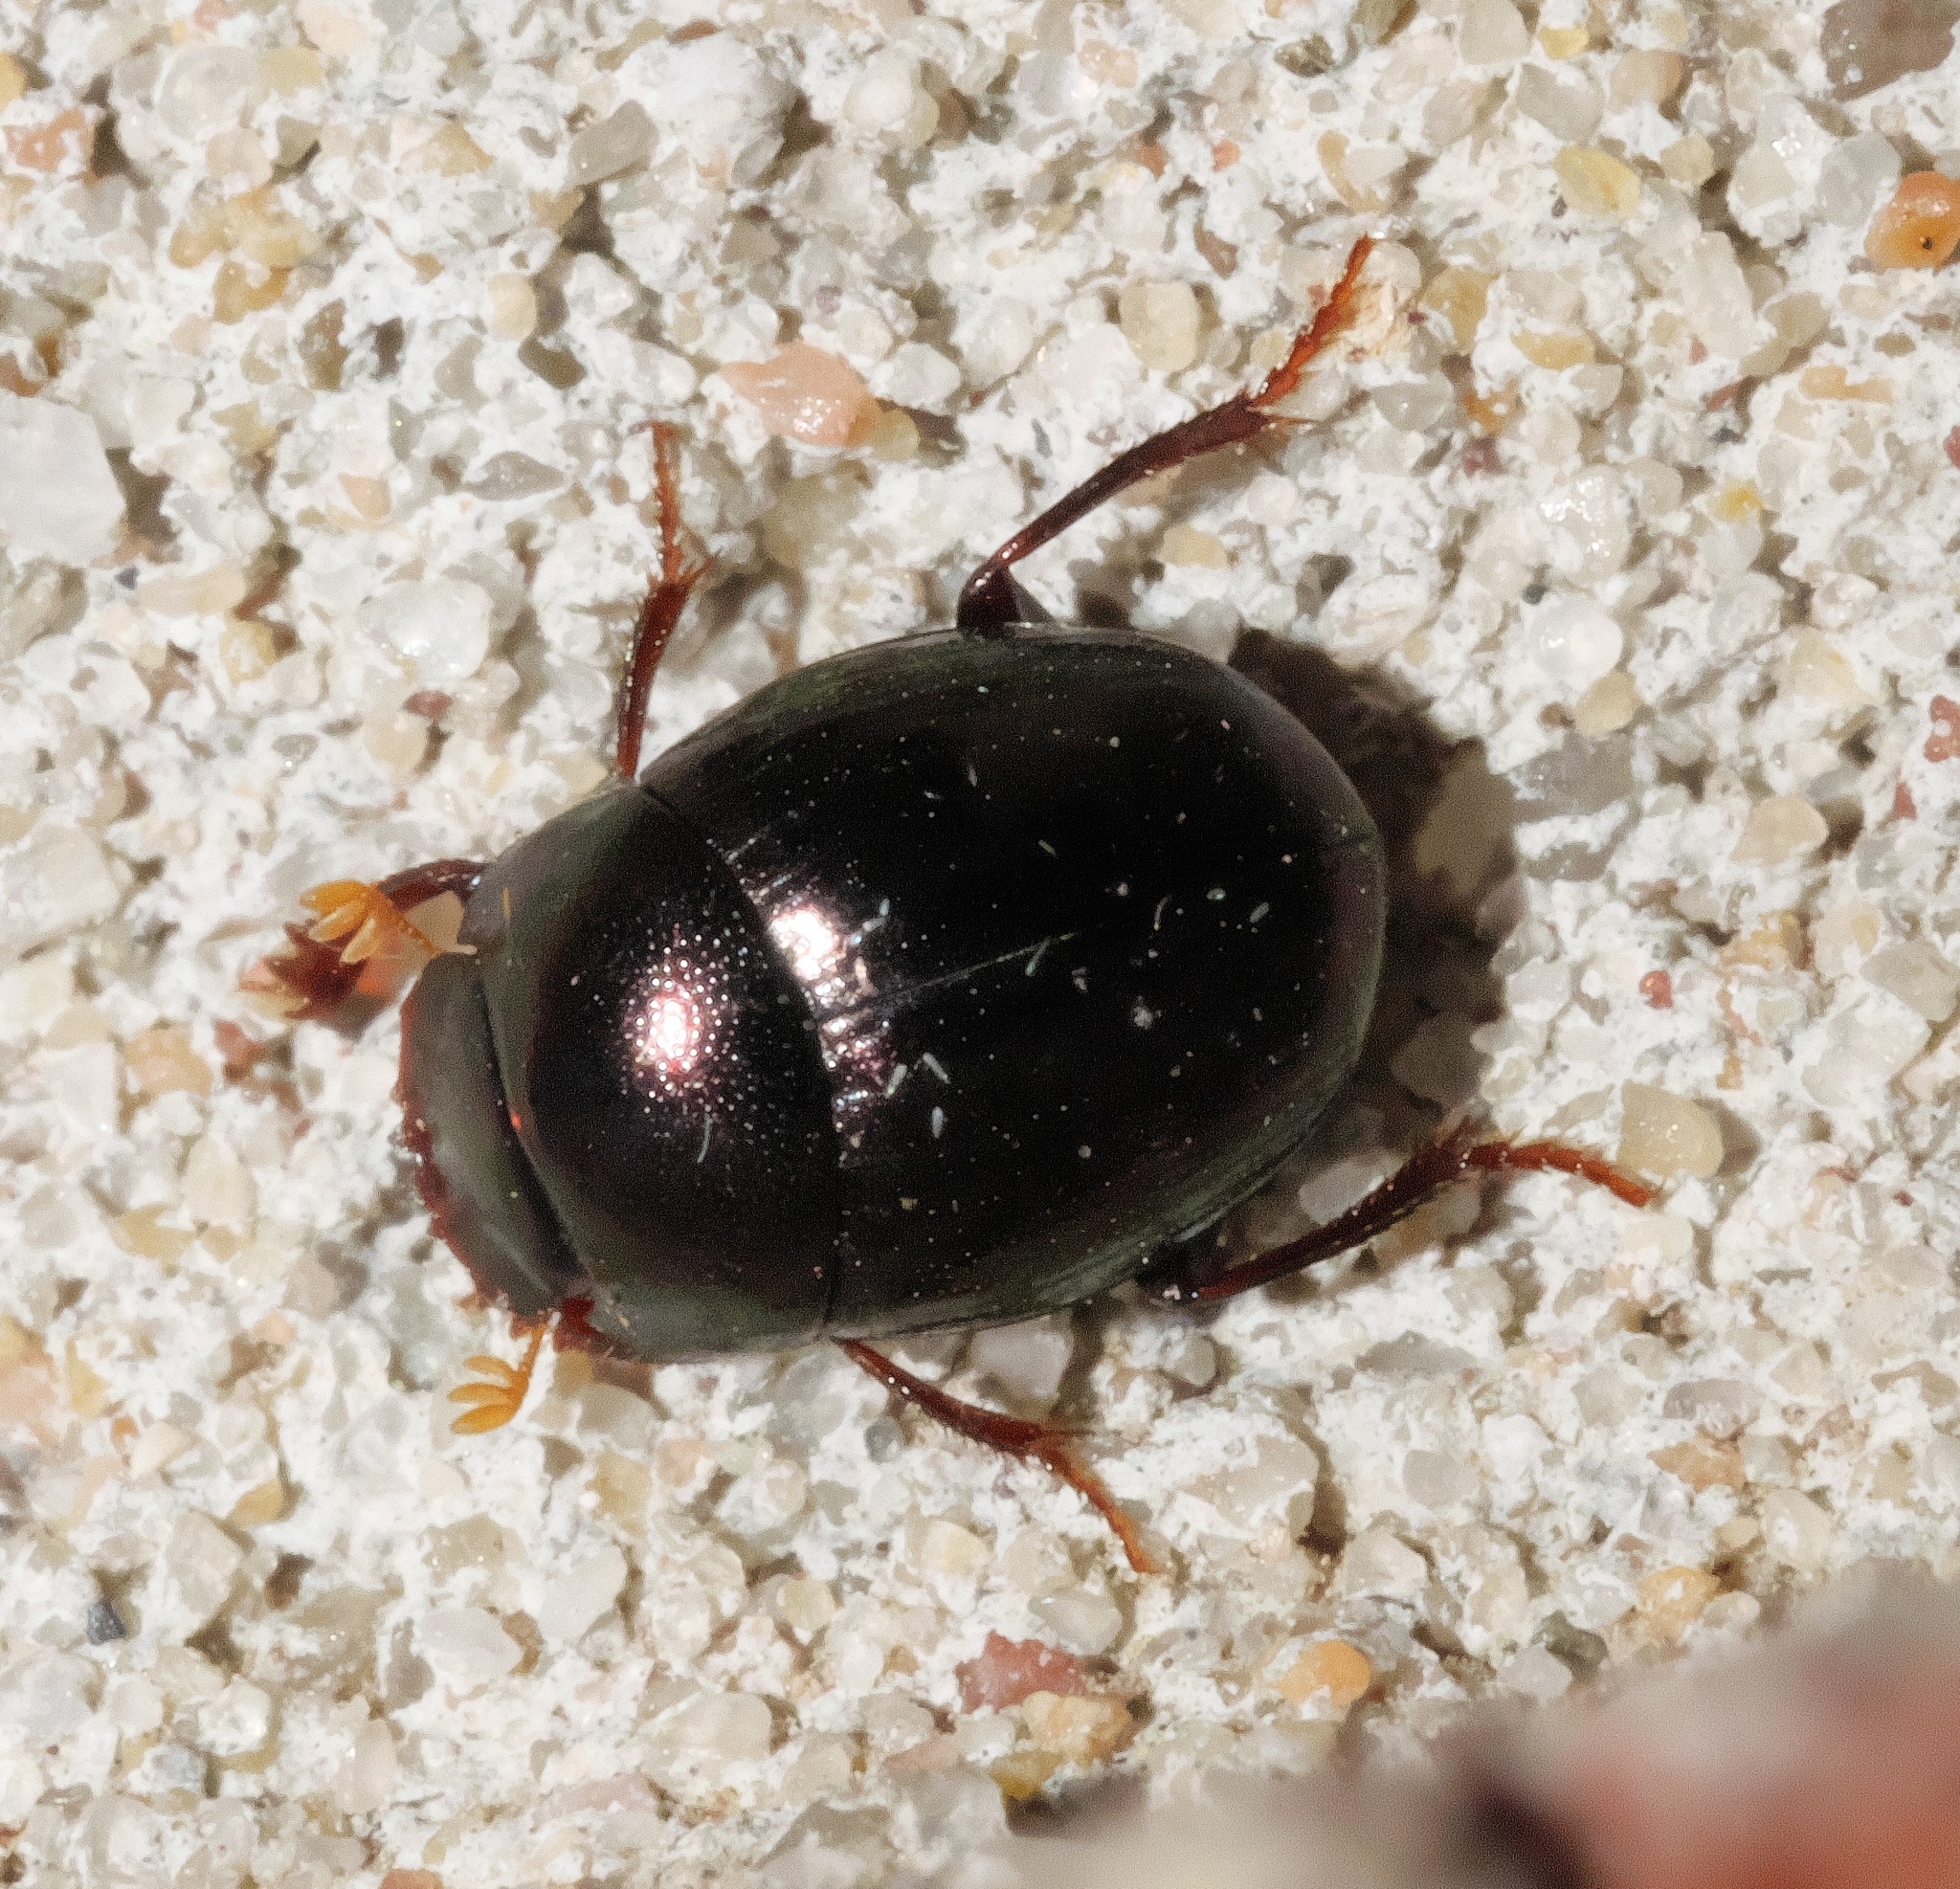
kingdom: Animalia
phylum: Arthropoda
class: Insecta
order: Coleoptera
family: Scarabaeidae
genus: Pseudocanthon
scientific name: Pseudocanthon perplexus
